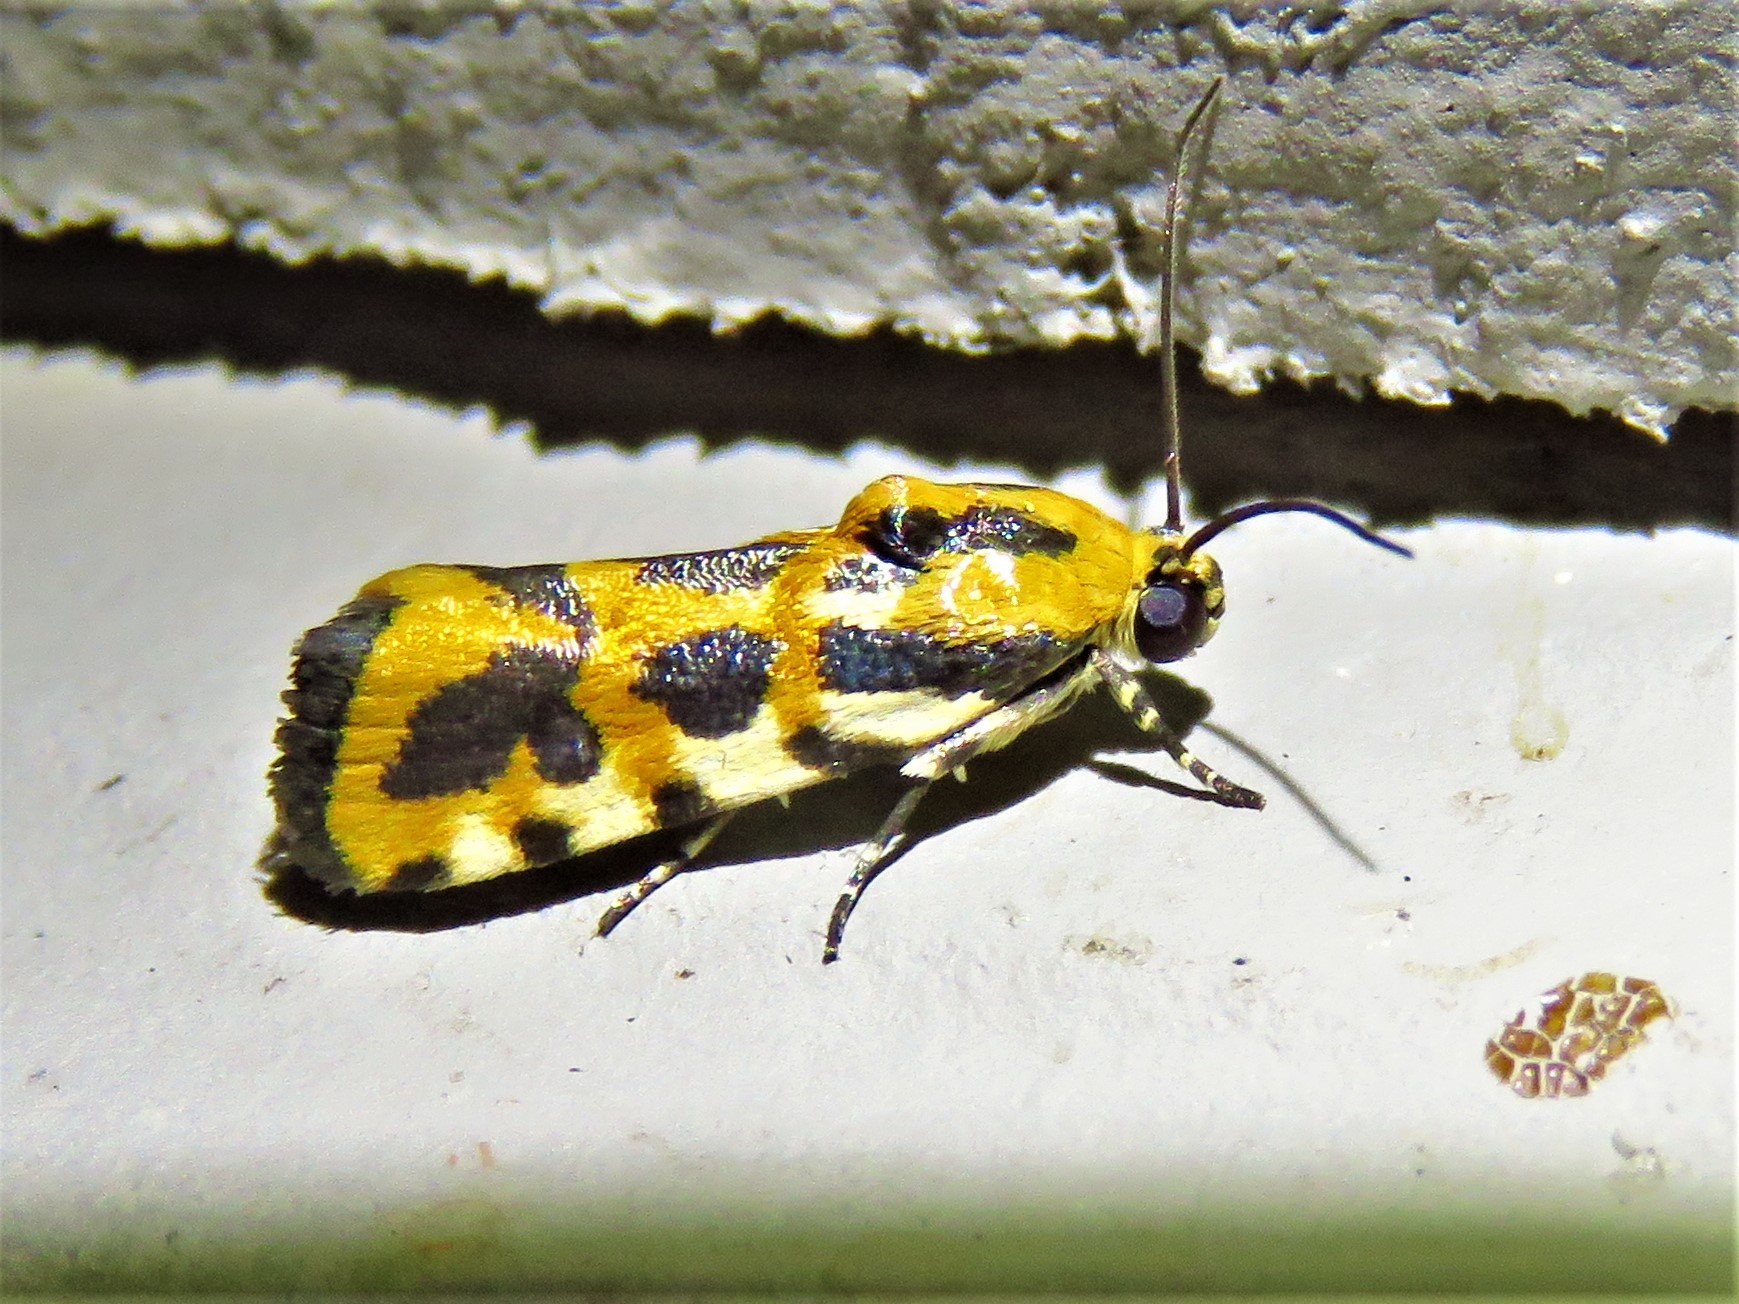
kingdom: Animalia
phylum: Arthropoda
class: Insecta
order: Lepidoptera
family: Noctuidae
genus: Acontia
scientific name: Acontia leo
